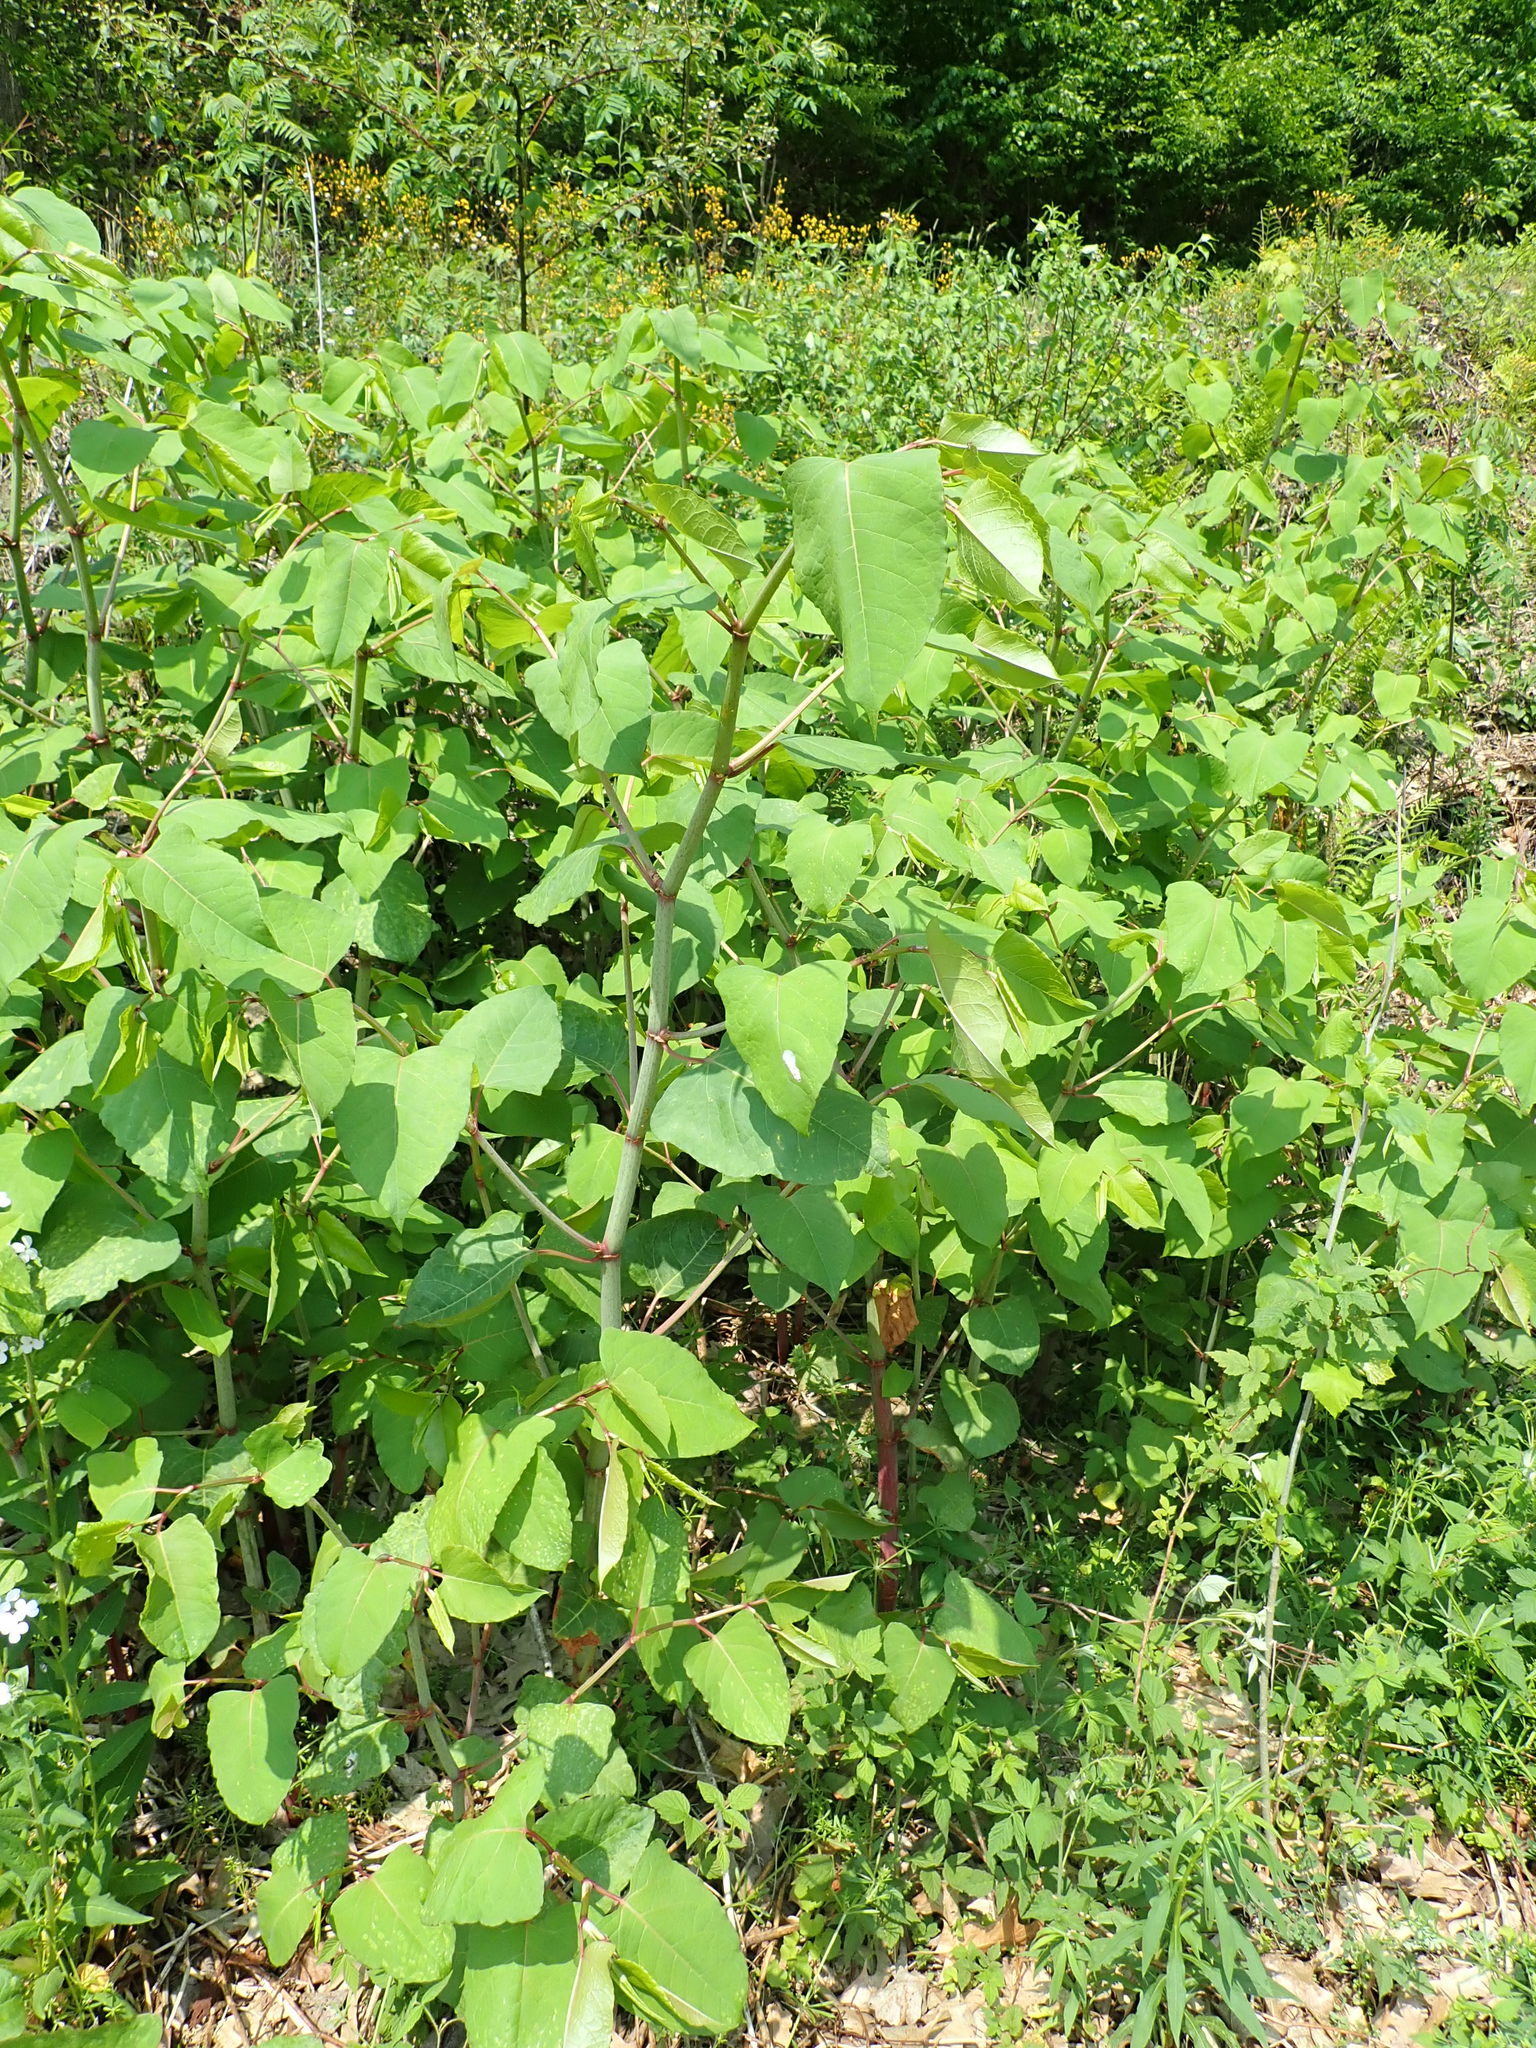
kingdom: Plantae
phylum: Tracheophyta
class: Magnoliopsida
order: Caryophyllales
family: Polygonaceae
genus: Reynoutria
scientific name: Reynoutria japonica
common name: Japanese knotweed
